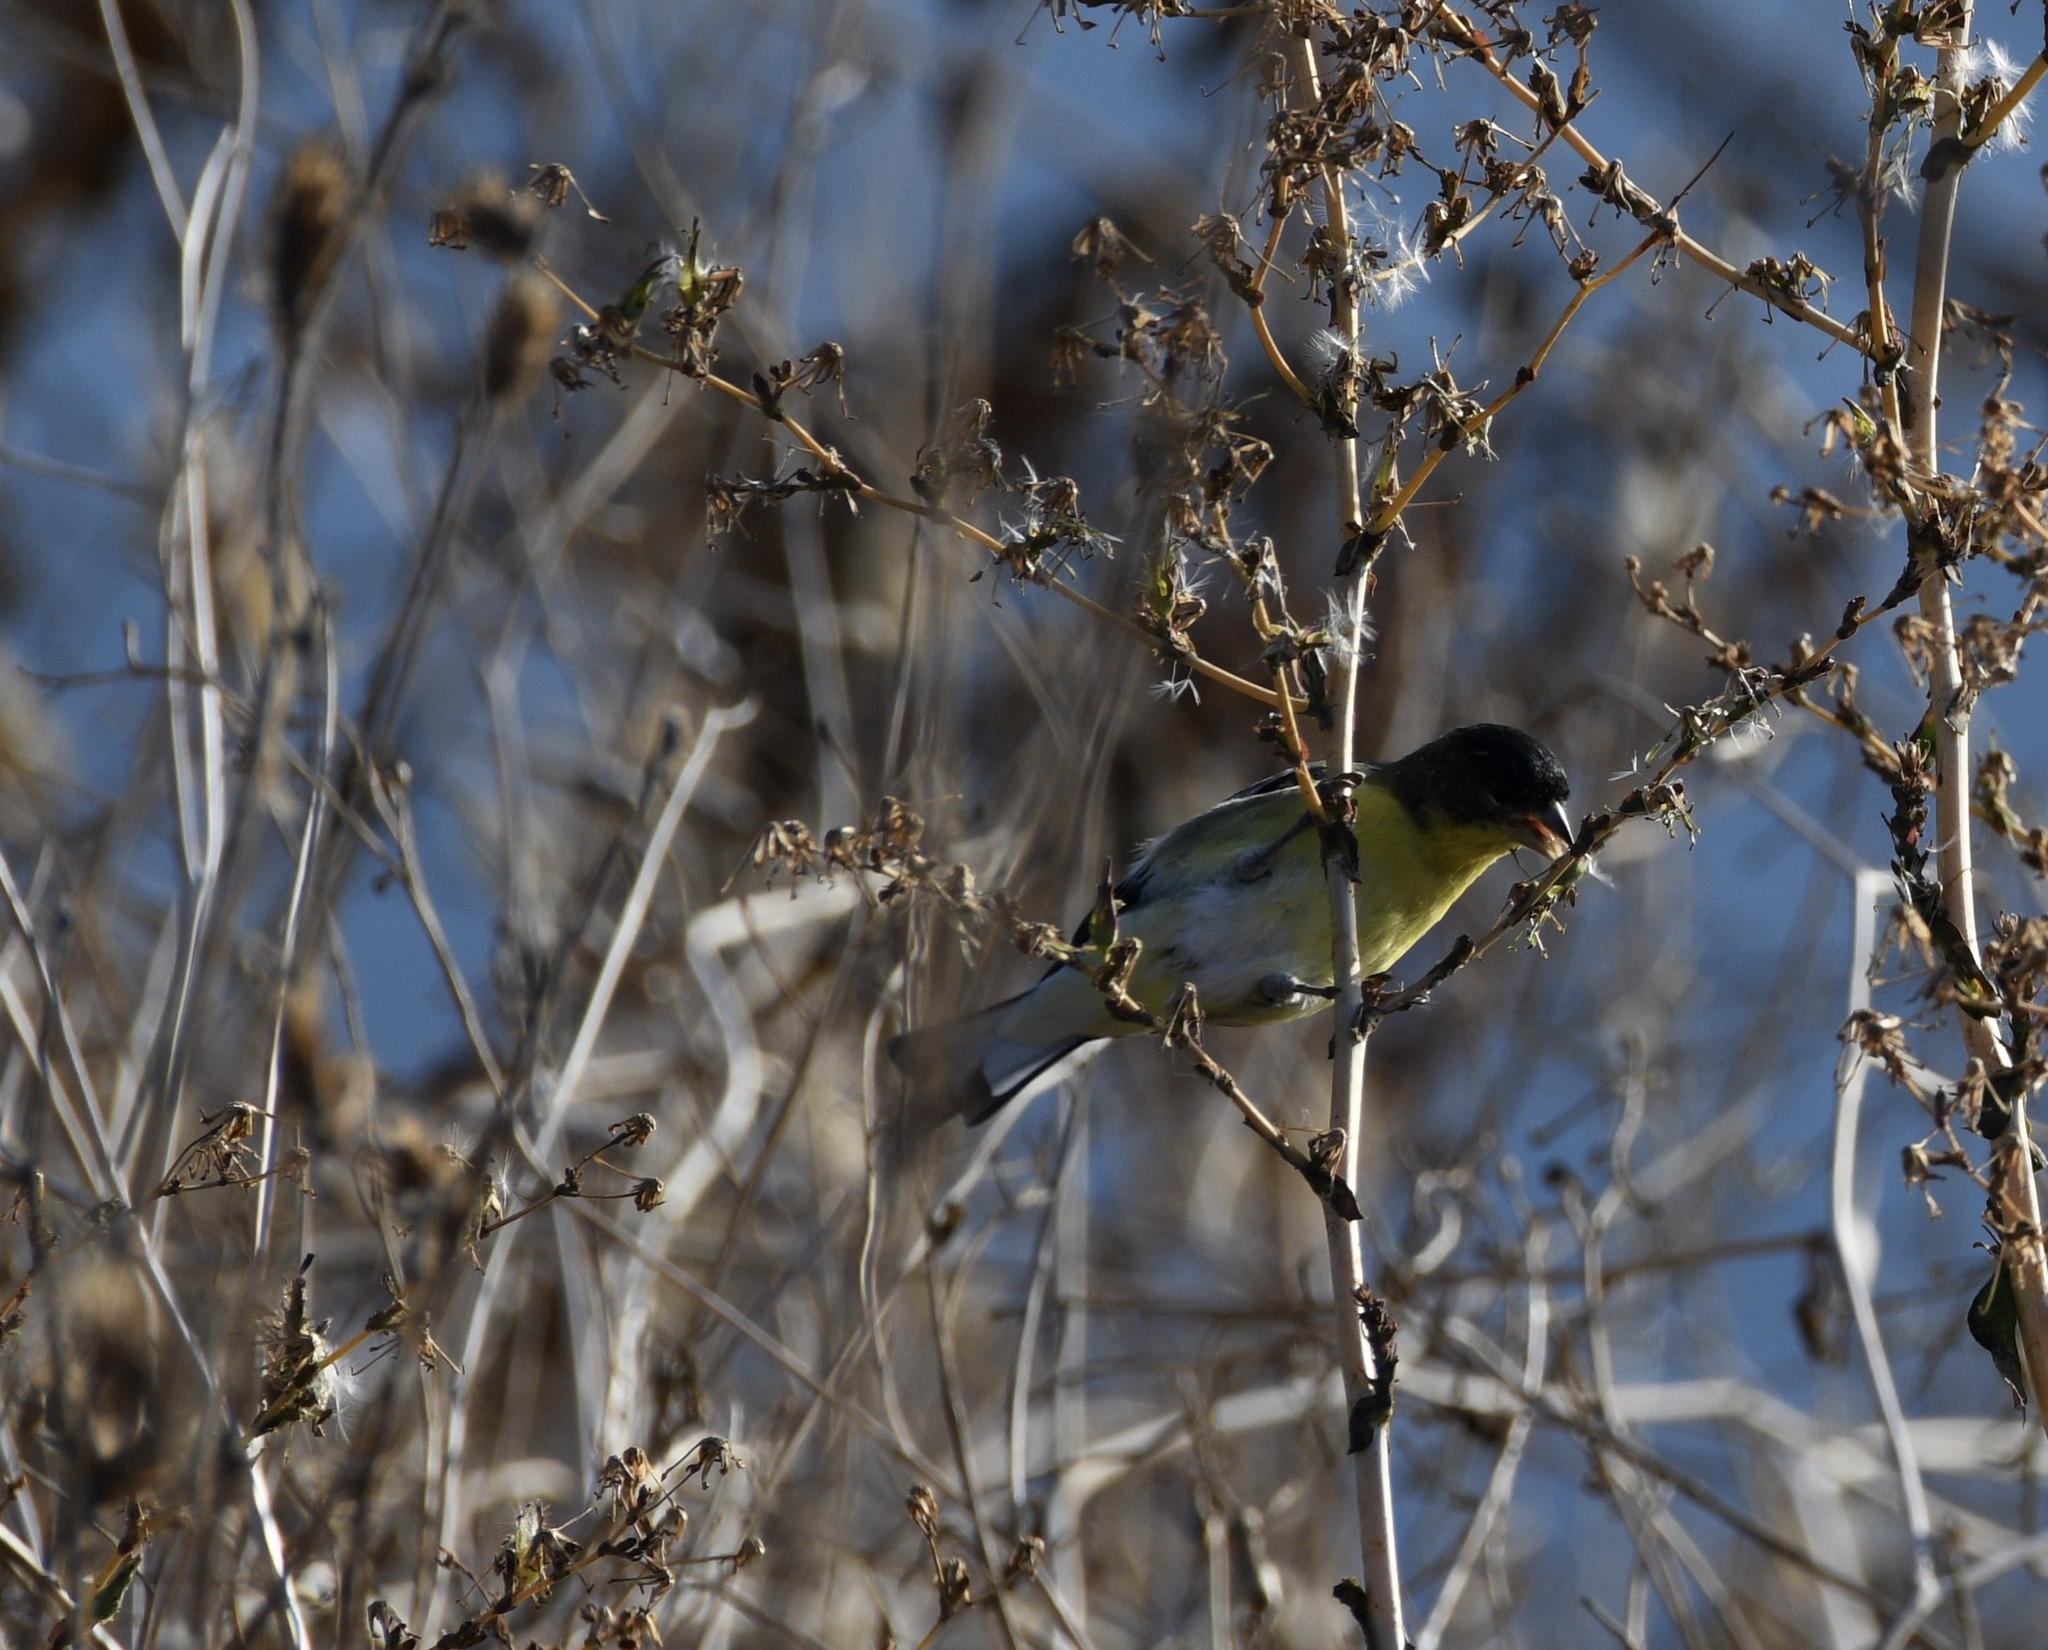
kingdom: Animalia
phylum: Chordata
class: Aves
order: Passeriformes
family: Fringillidae
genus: Spinus
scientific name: Spinus psaltria
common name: Lesser goldfinch
